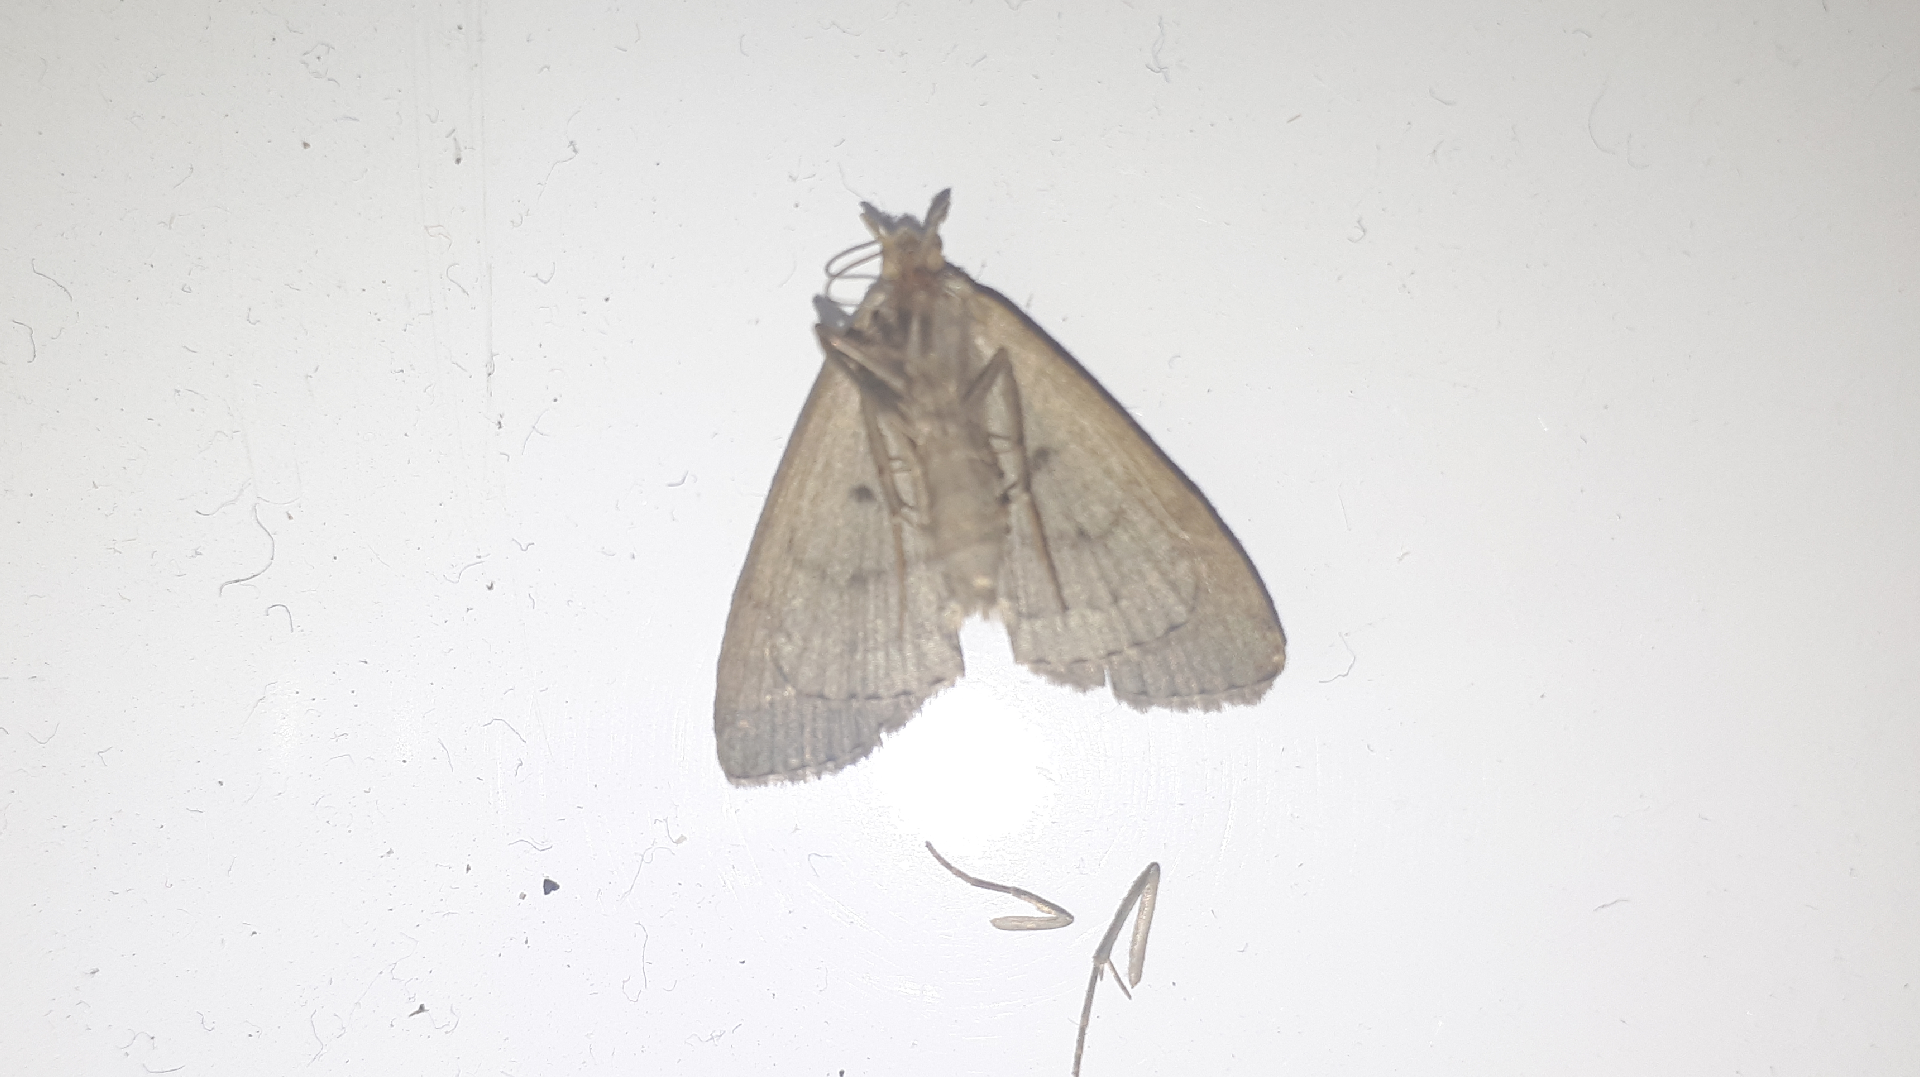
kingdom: Animalia
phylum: Arthropoda
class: Insecta
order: Lepidoptera
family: Erebidae
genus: Herminia
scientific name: Herminia tarsipennalis
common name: Fan-foot
